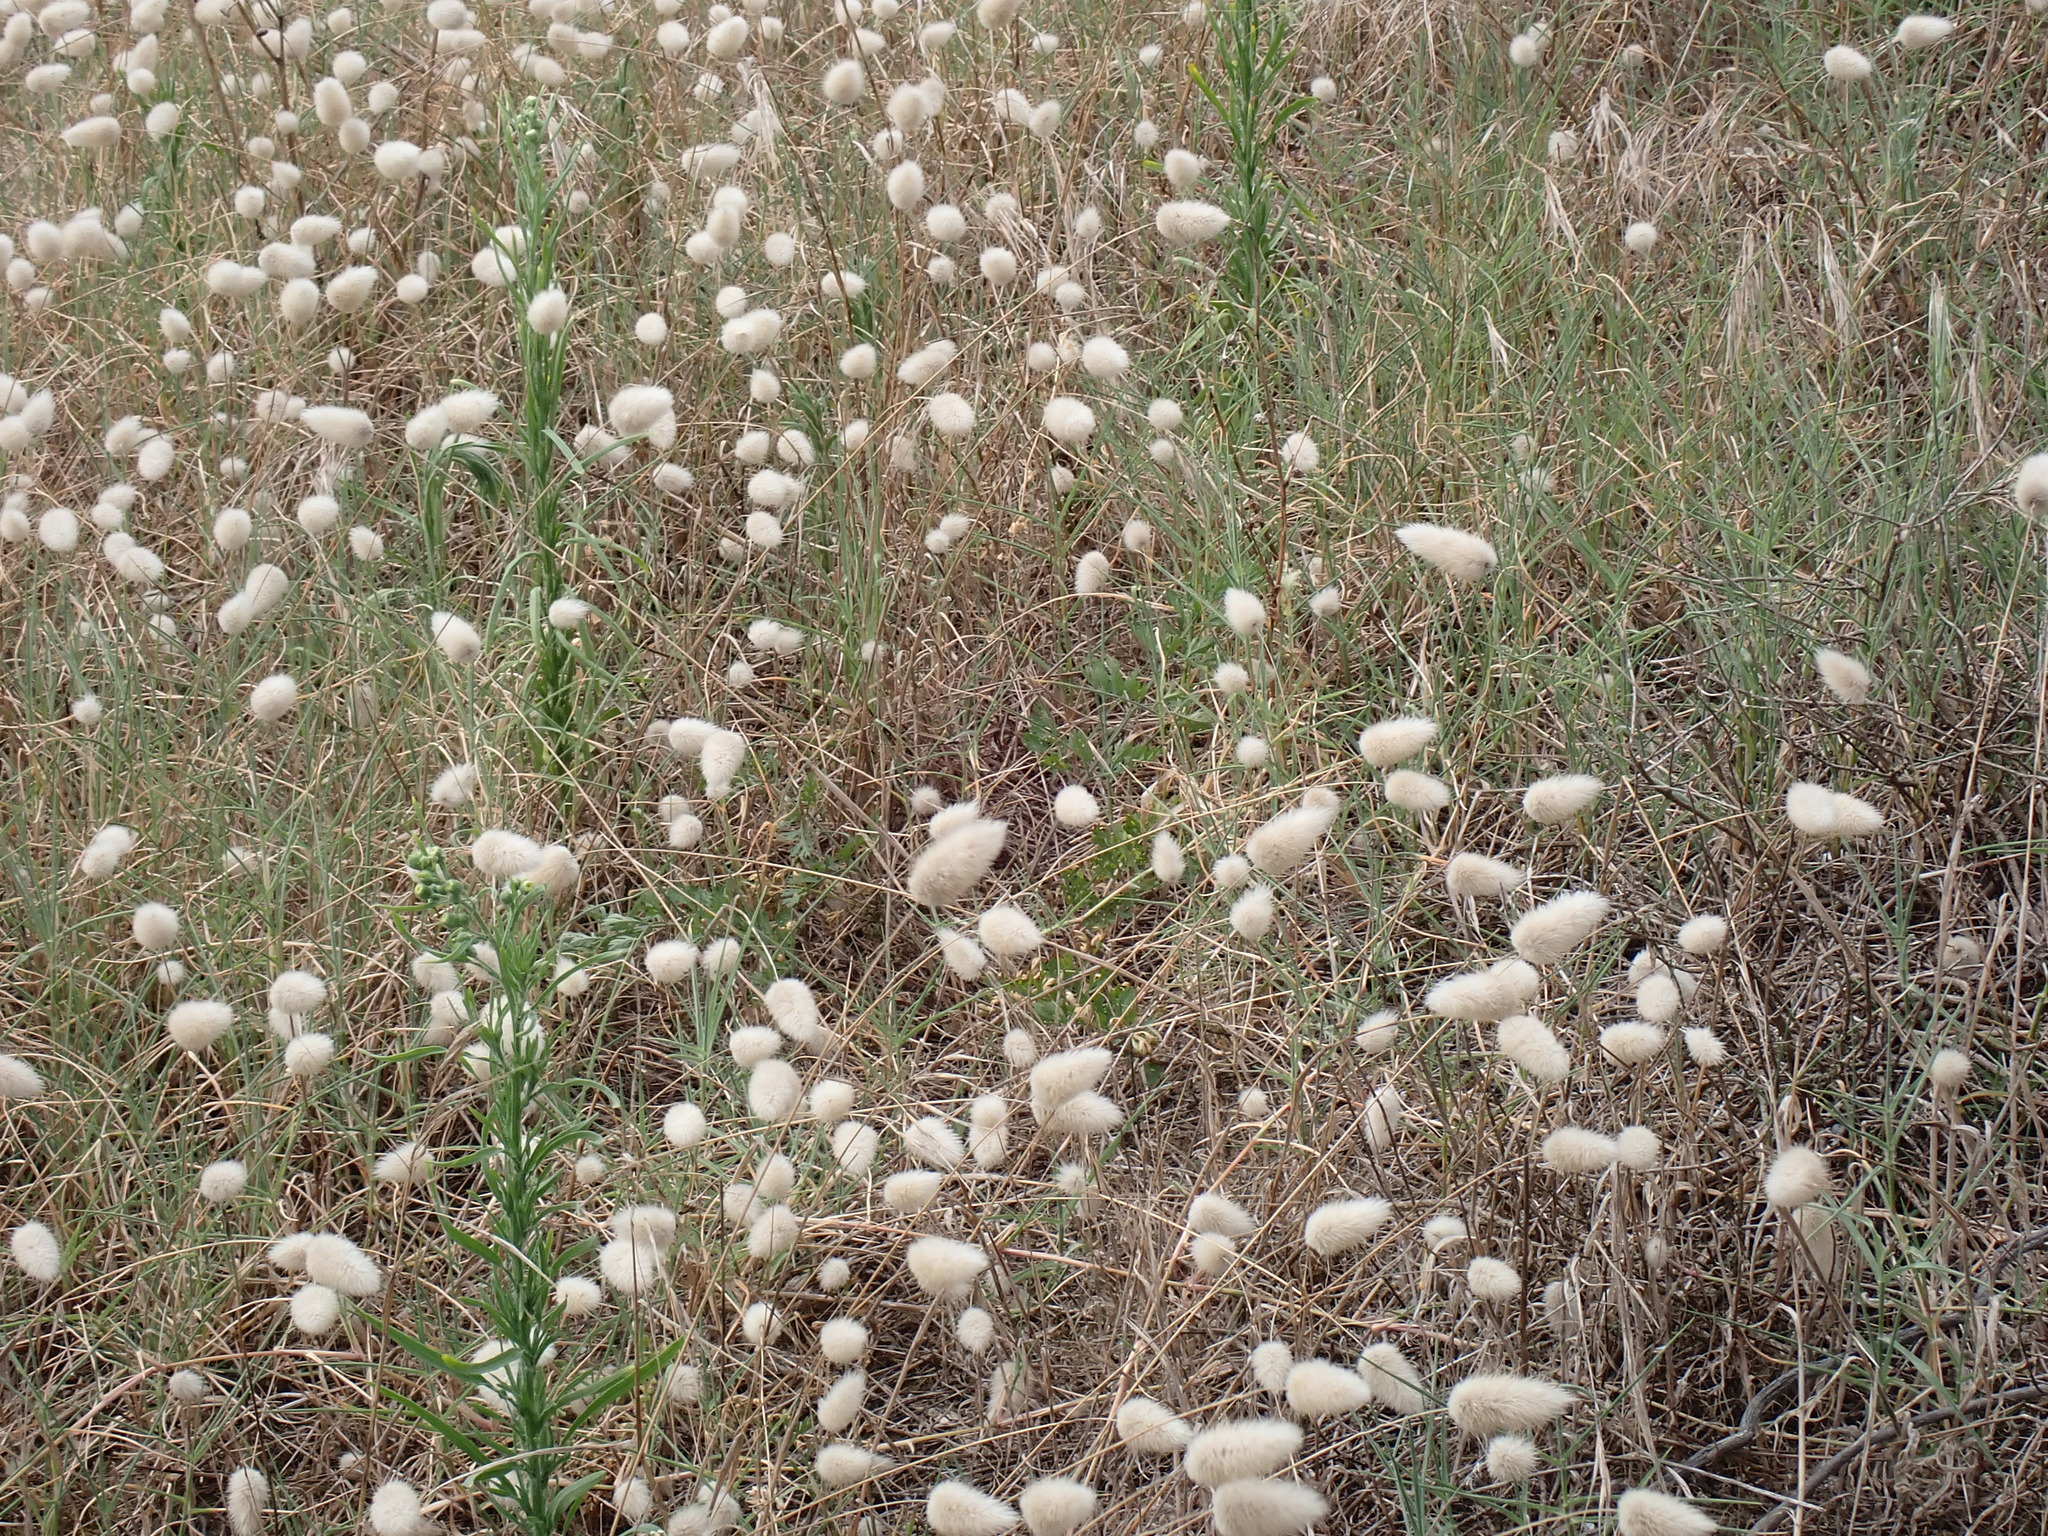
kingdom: Plantae
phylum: Tracheophyta
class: Liliopsida
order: Poales
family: Poaceae
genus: Lagurus
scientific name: Lagurus ovatus
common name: Hare's-tail
